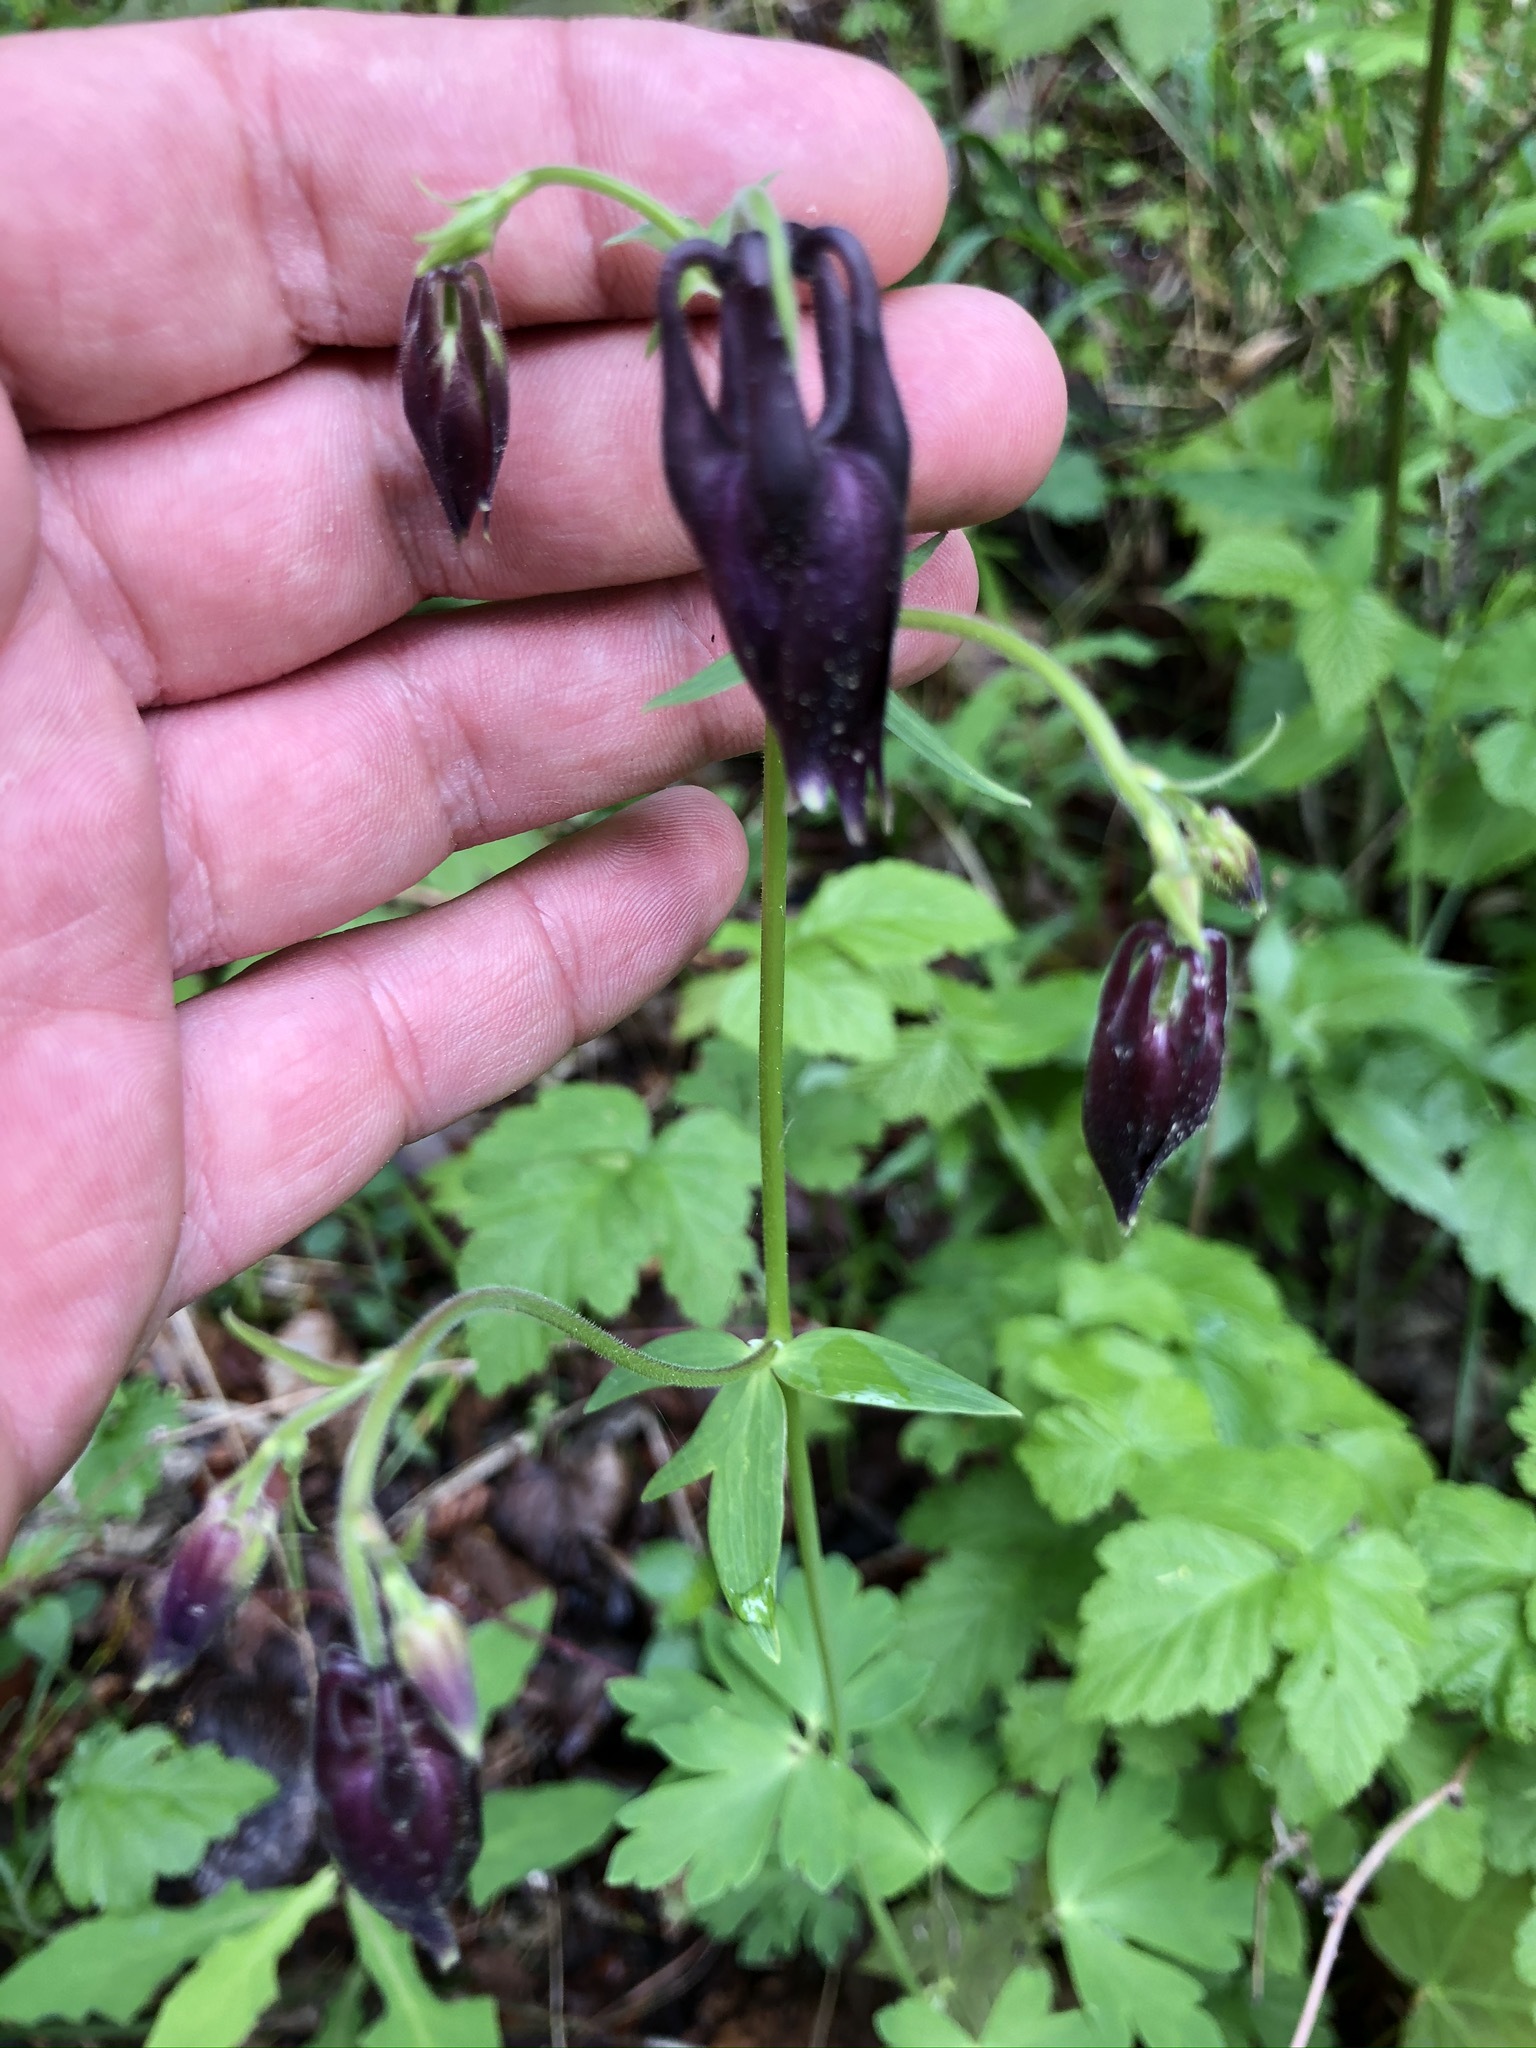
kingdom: Plantae
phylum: Tracheophyta
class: Magnoliopsida
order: Ranunculales
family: Ranunculaceae
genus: Aquilegia
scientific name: Aquilegia atrata
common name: Dark columbine
